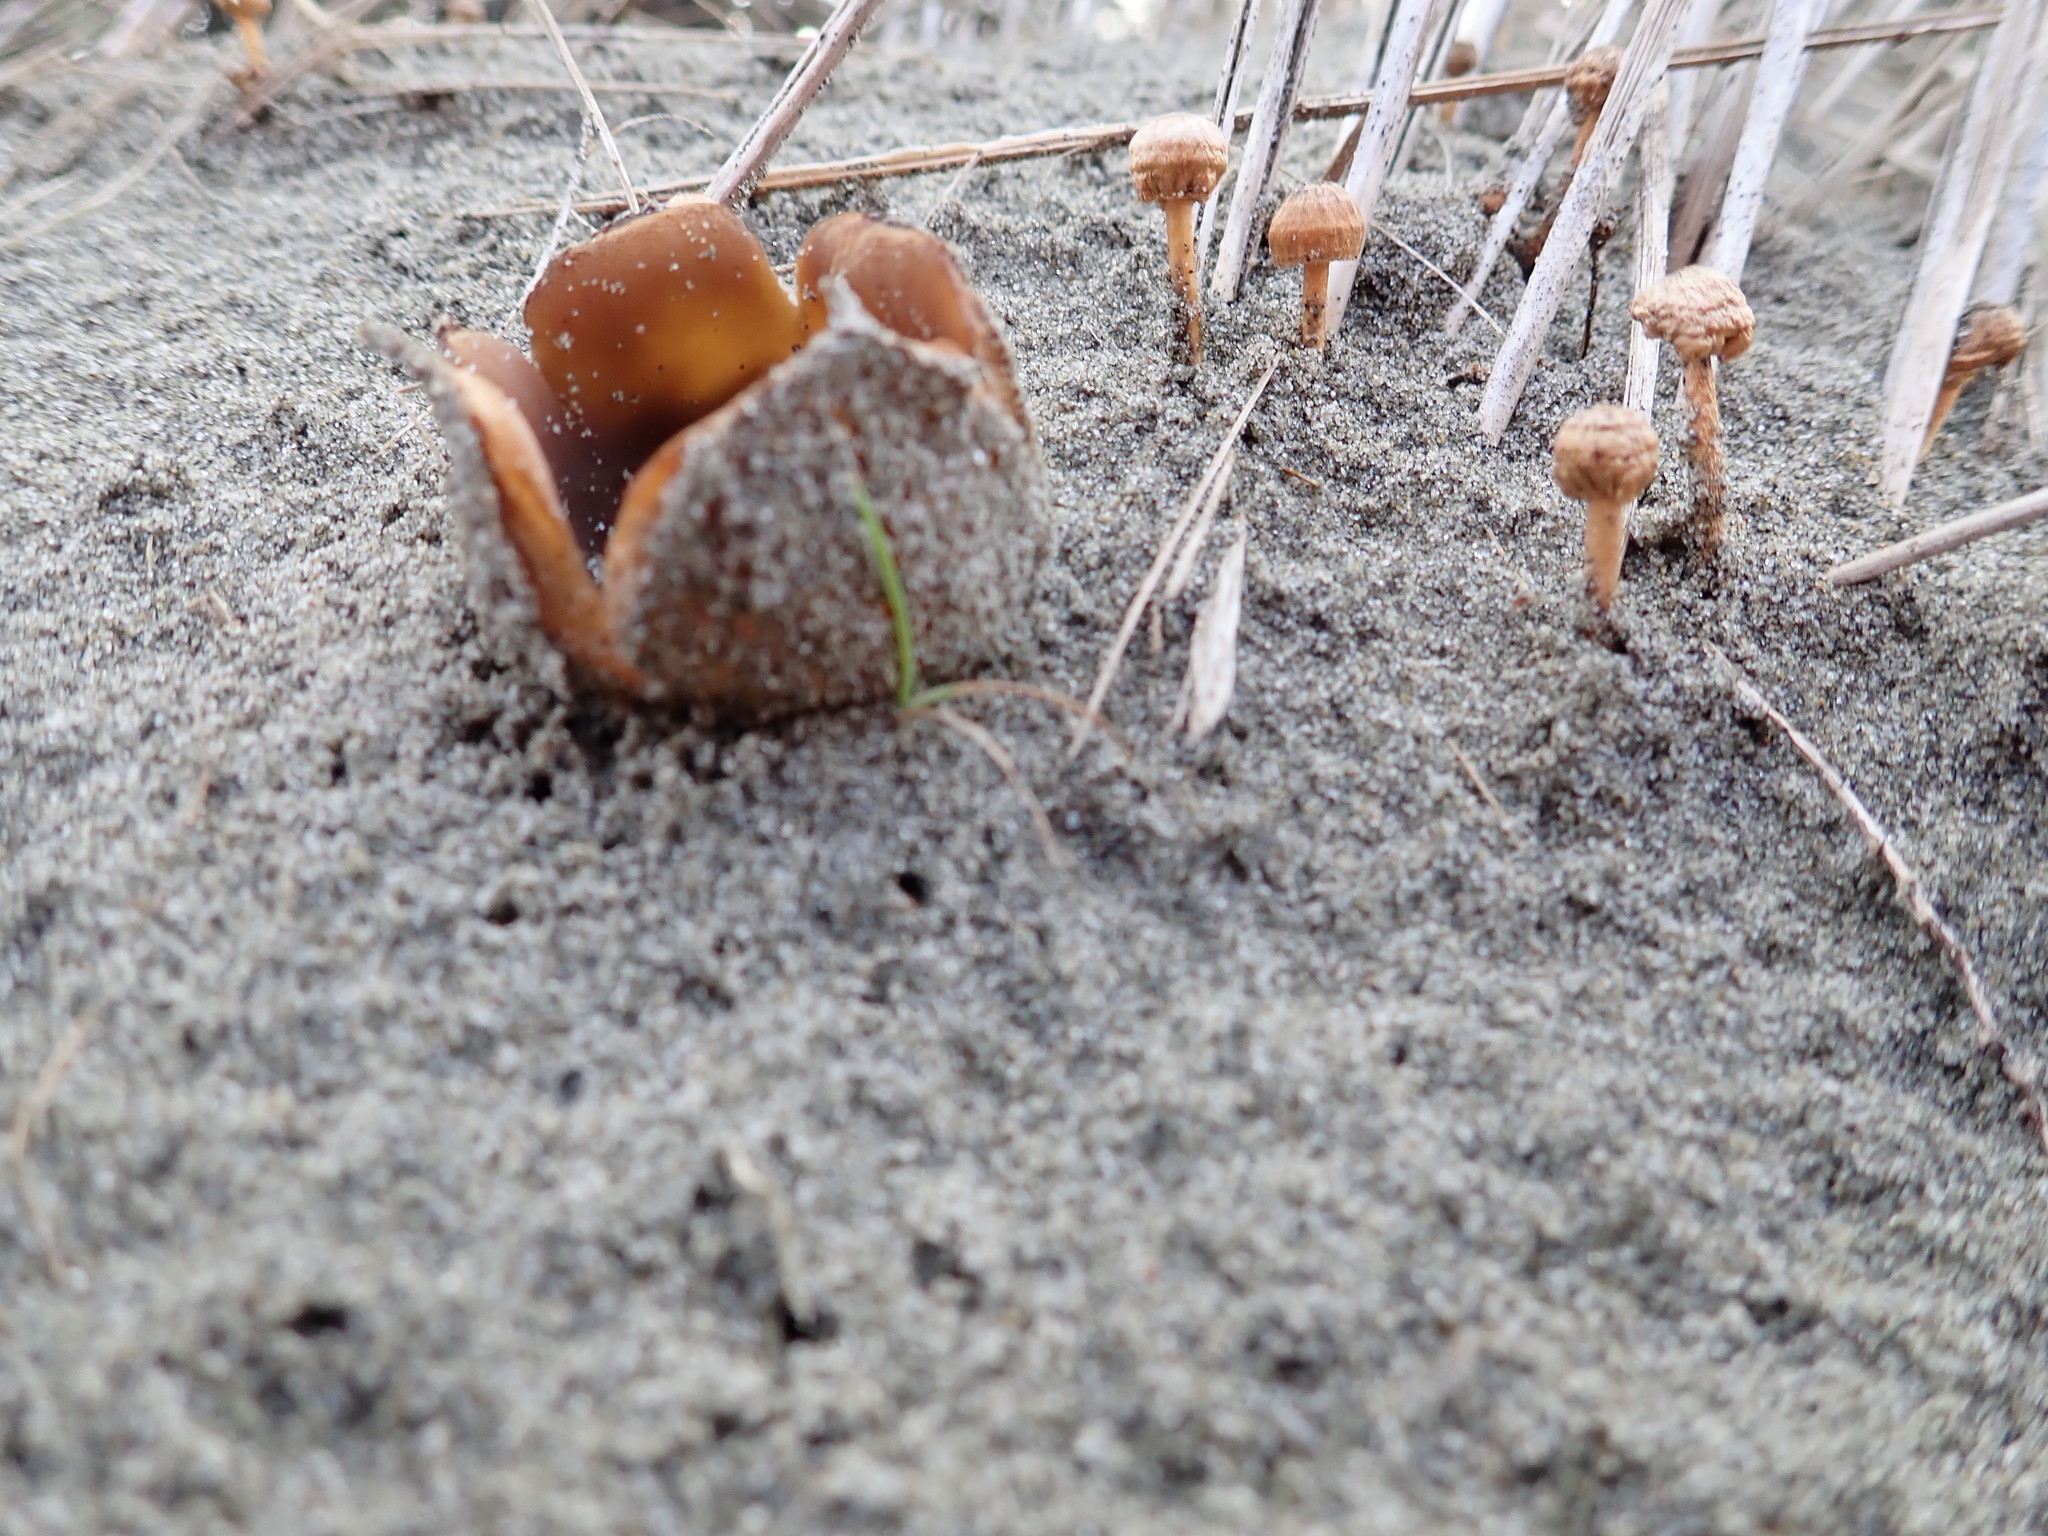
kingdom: Fungi
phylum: Ascomycota
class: Pezizomycetes
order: Pezizales
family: Pezizaceae
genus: Peziza
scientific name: Peziza oceanica
